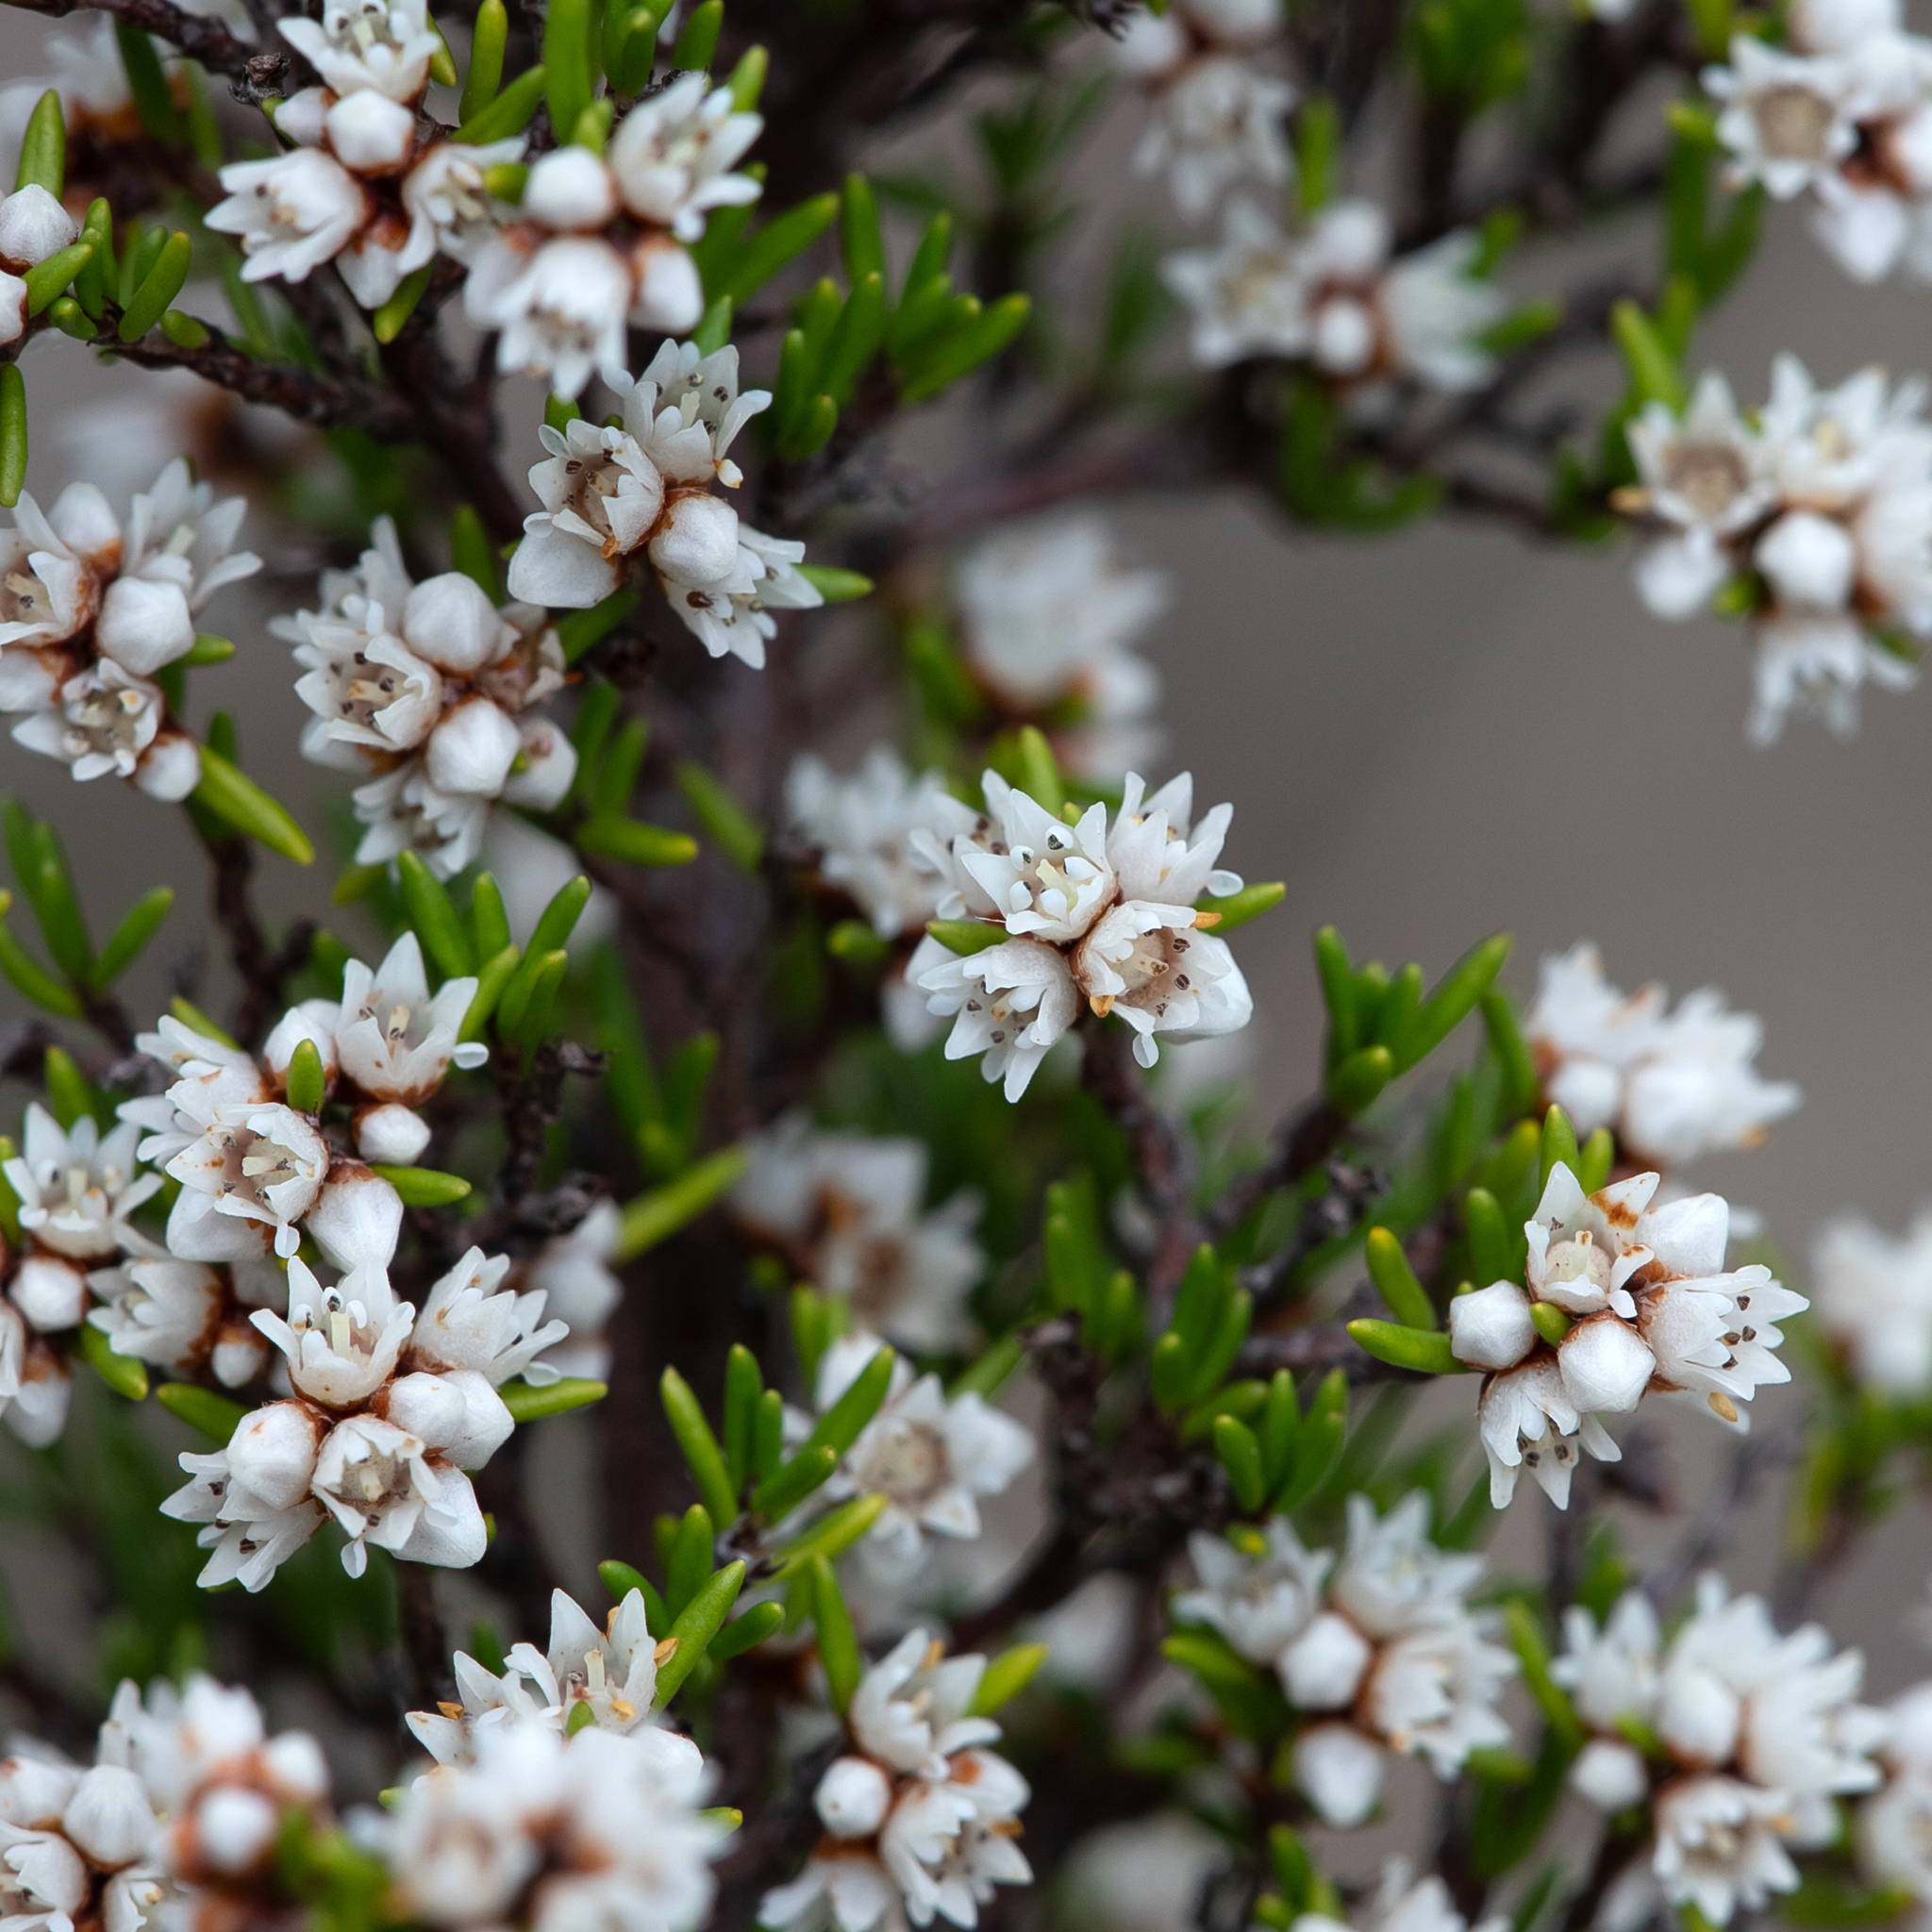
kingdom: Plantae
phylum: Tracheophyta
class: Magnoliopsida
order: Rosales
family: Rhamnaceae
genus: Cryptandra
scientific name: Cryptandra tomentosa
